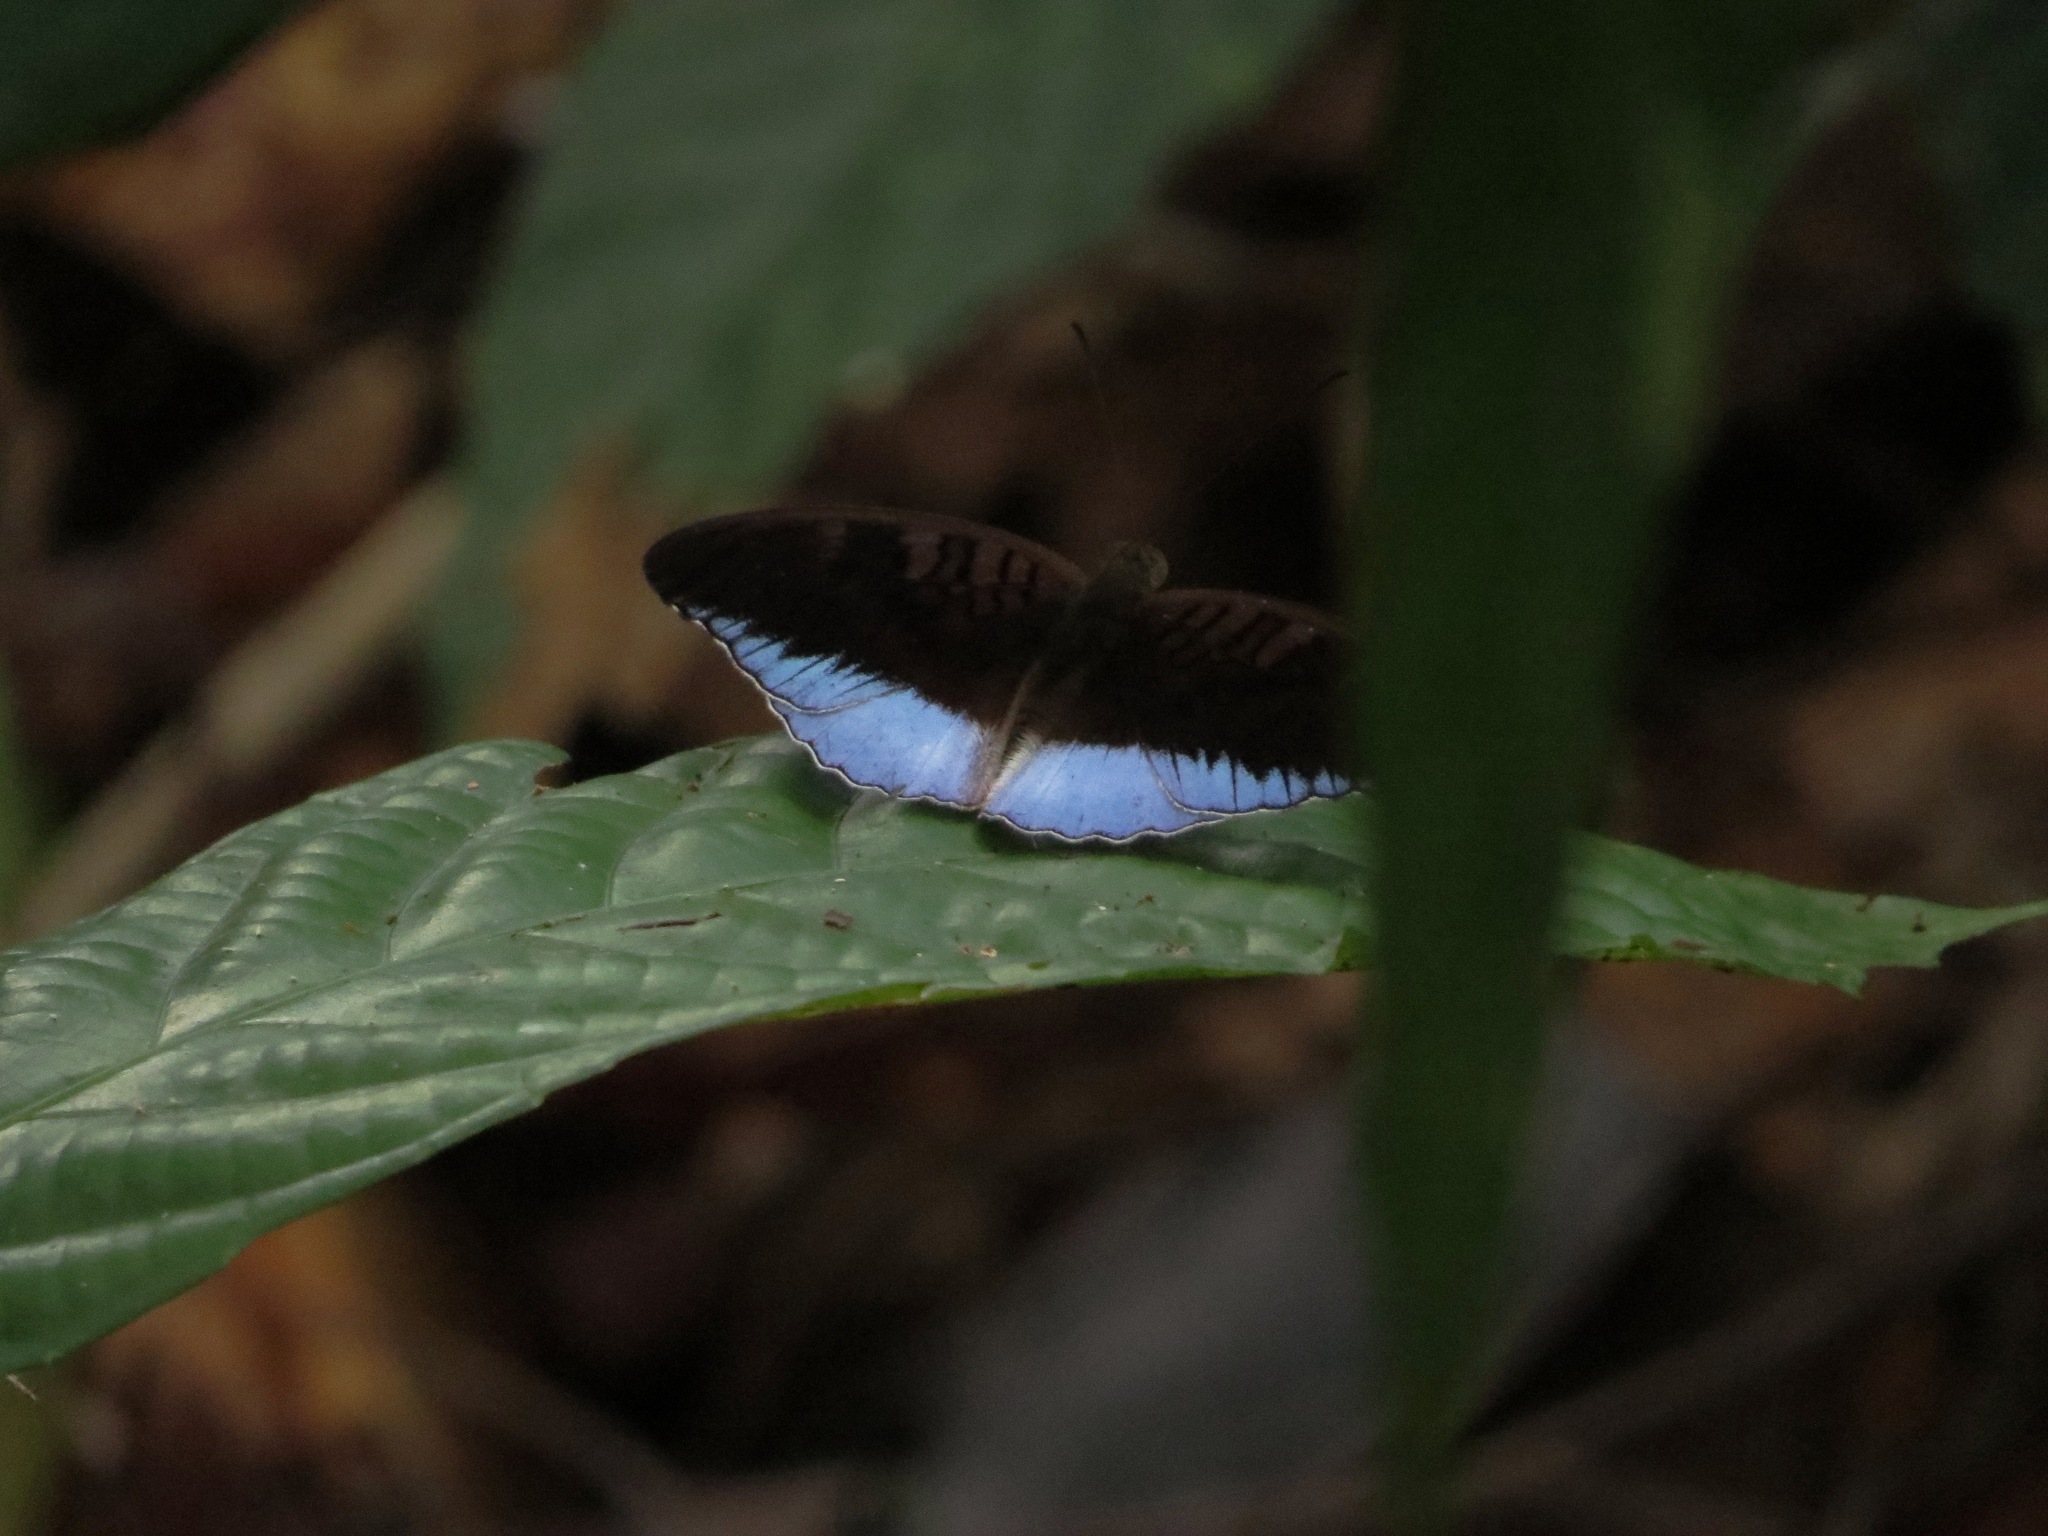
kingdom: Animalia
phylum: Arthropoda
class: Insecta
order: Lepidoptera
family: Nymphalidae
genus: Tanaecia
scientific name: Tanaecia iapis
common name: Horsfield's baron
